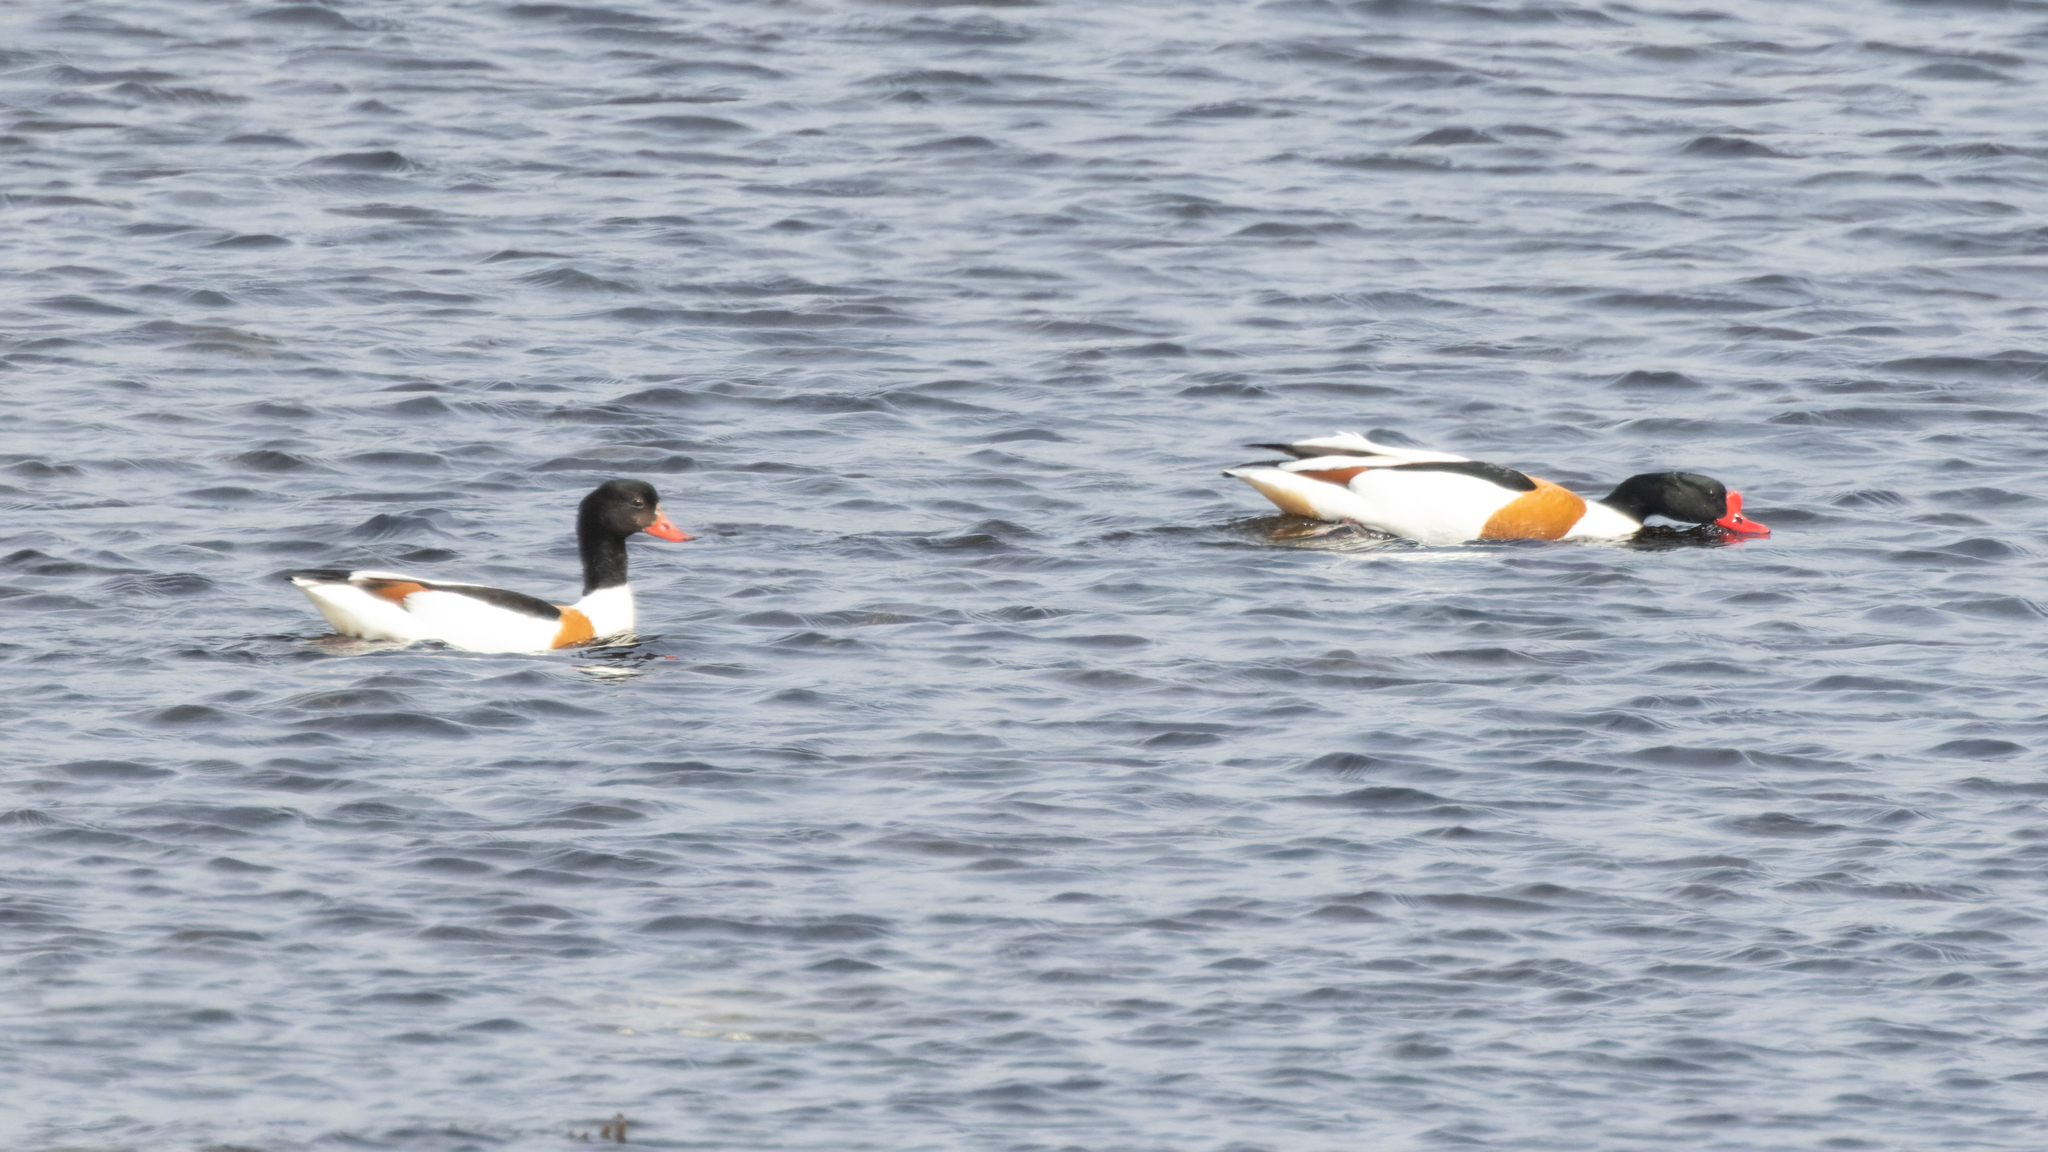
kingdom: Animalia
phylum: Chordata
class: Aves
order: Anseriformes
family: Anatidae
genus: Tadorna
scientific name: Tadorna tadorna
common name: Common shelduck
